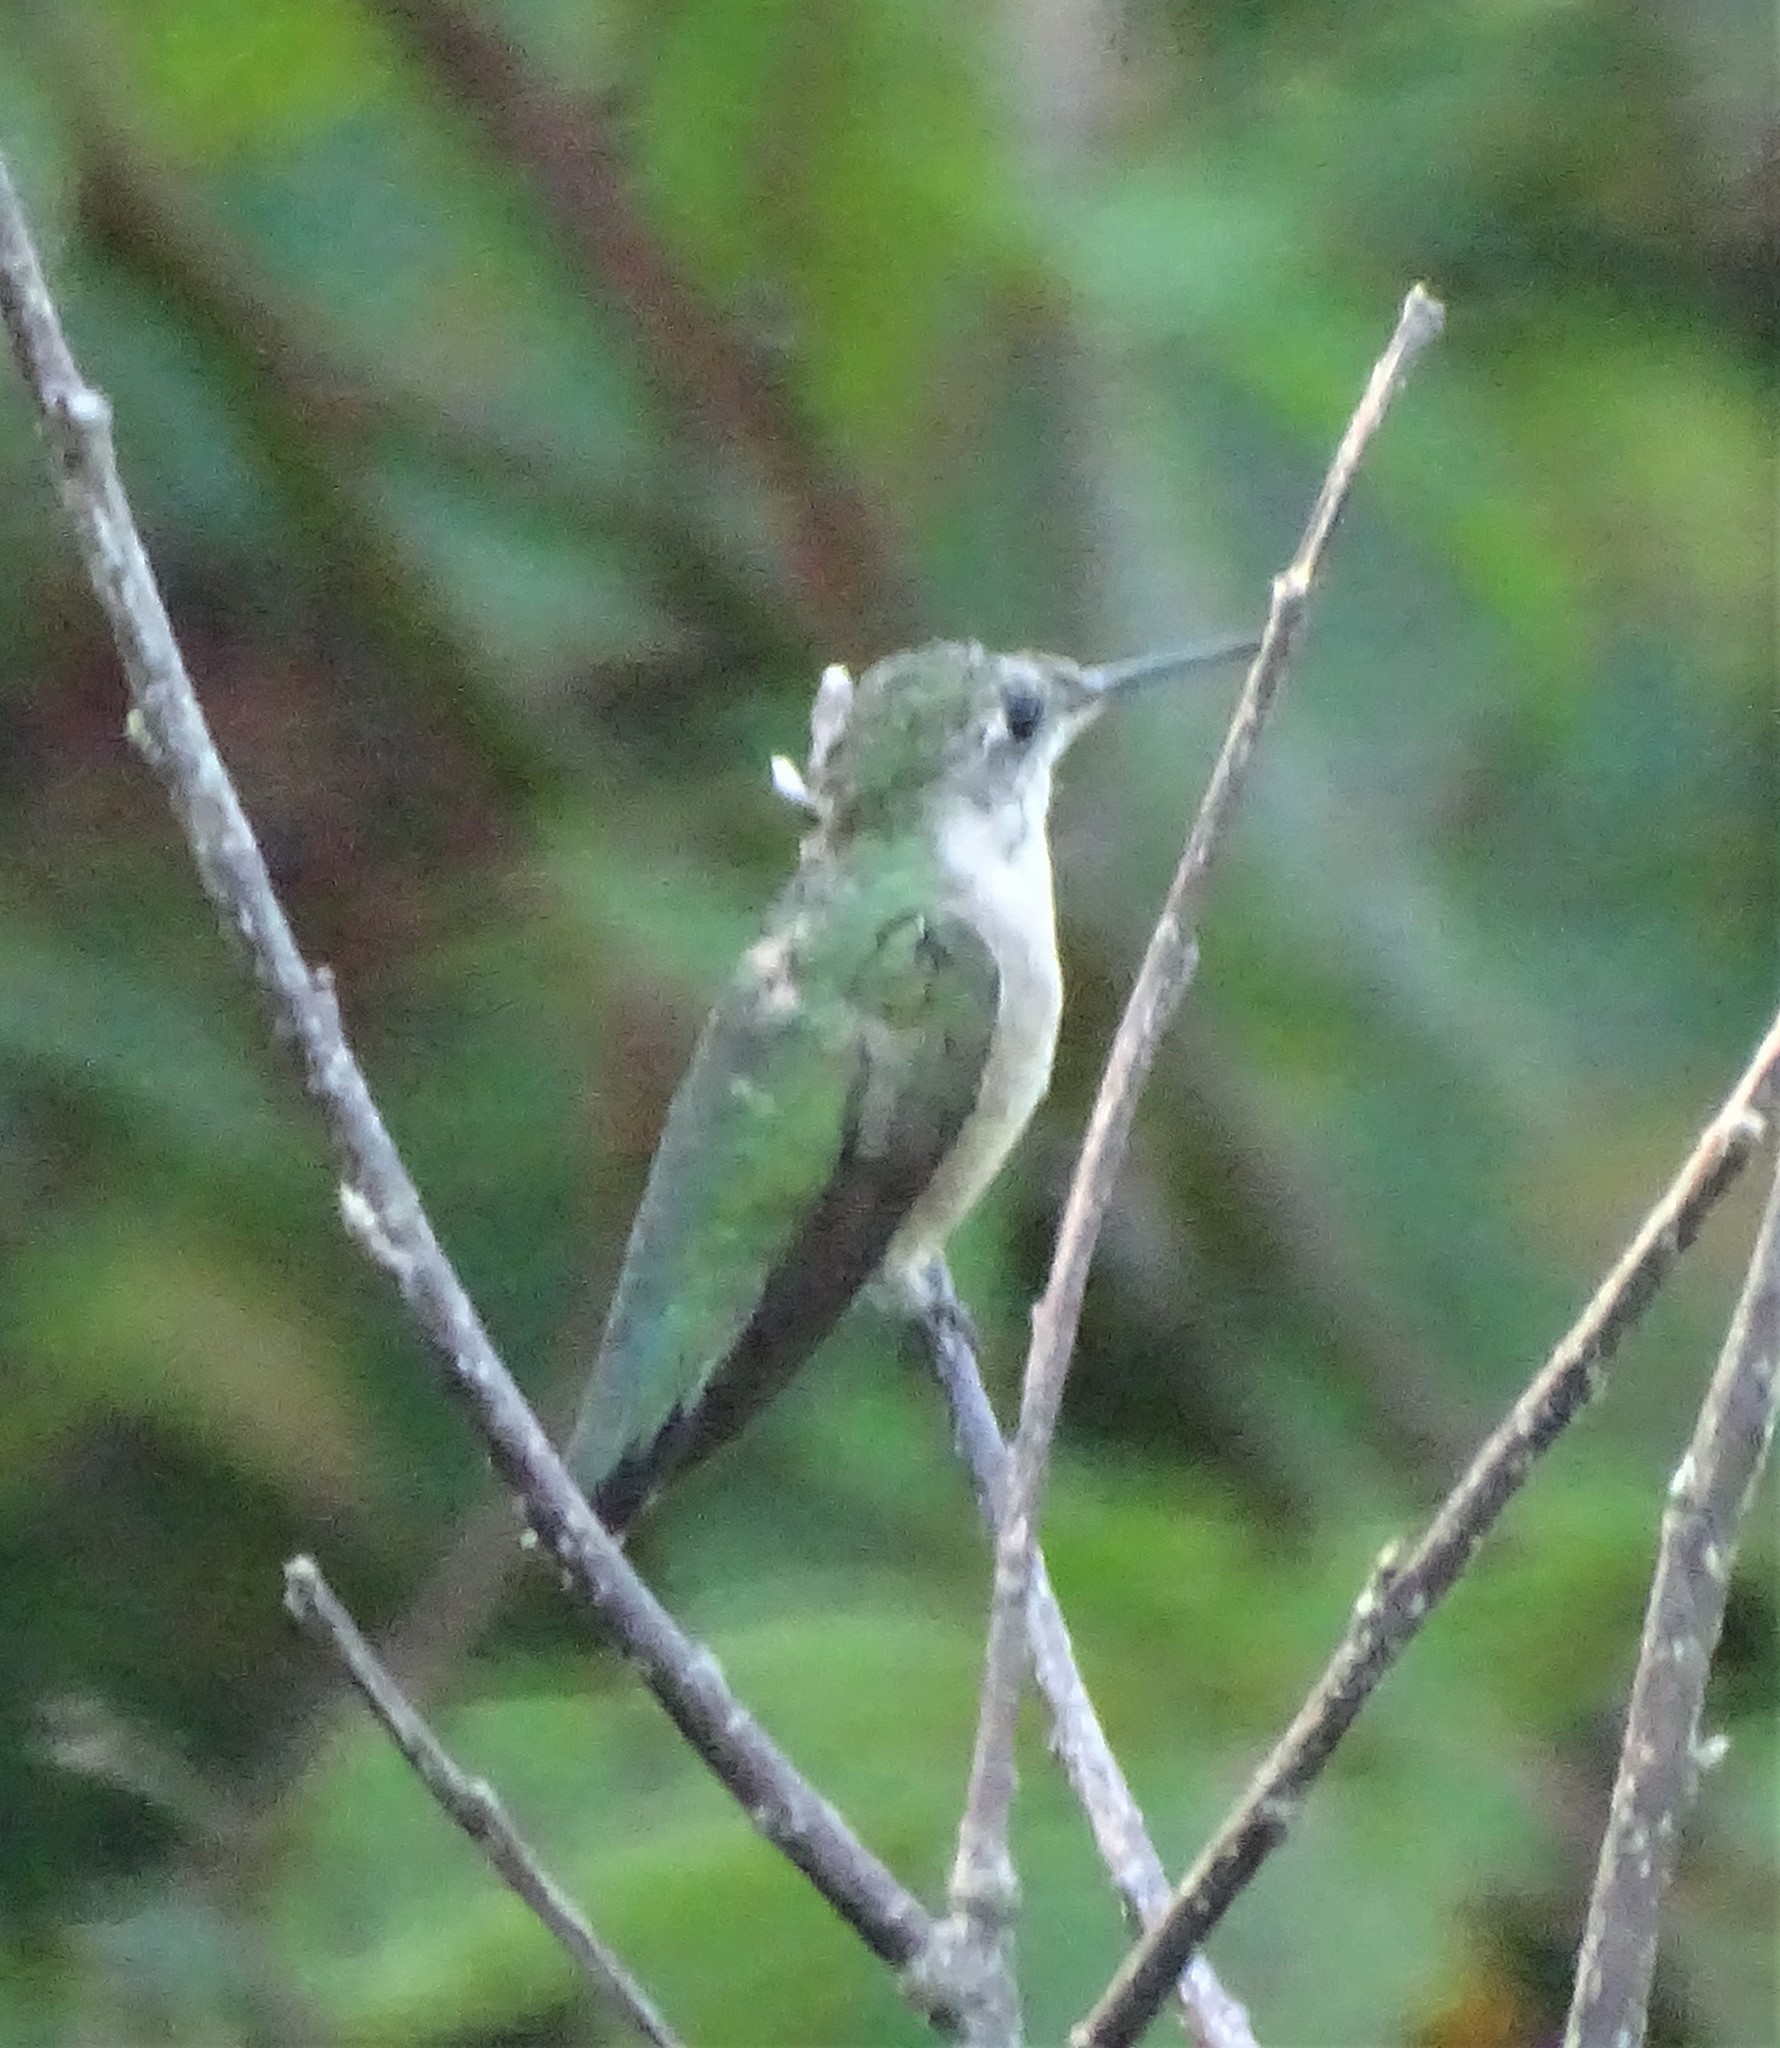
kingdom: Animalia
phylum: Chordata
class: Aves
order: Apodiformes
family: Trochilidae
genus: Archilochus
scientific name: Archilochus colubris
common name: Ruby-throated hummingbird
